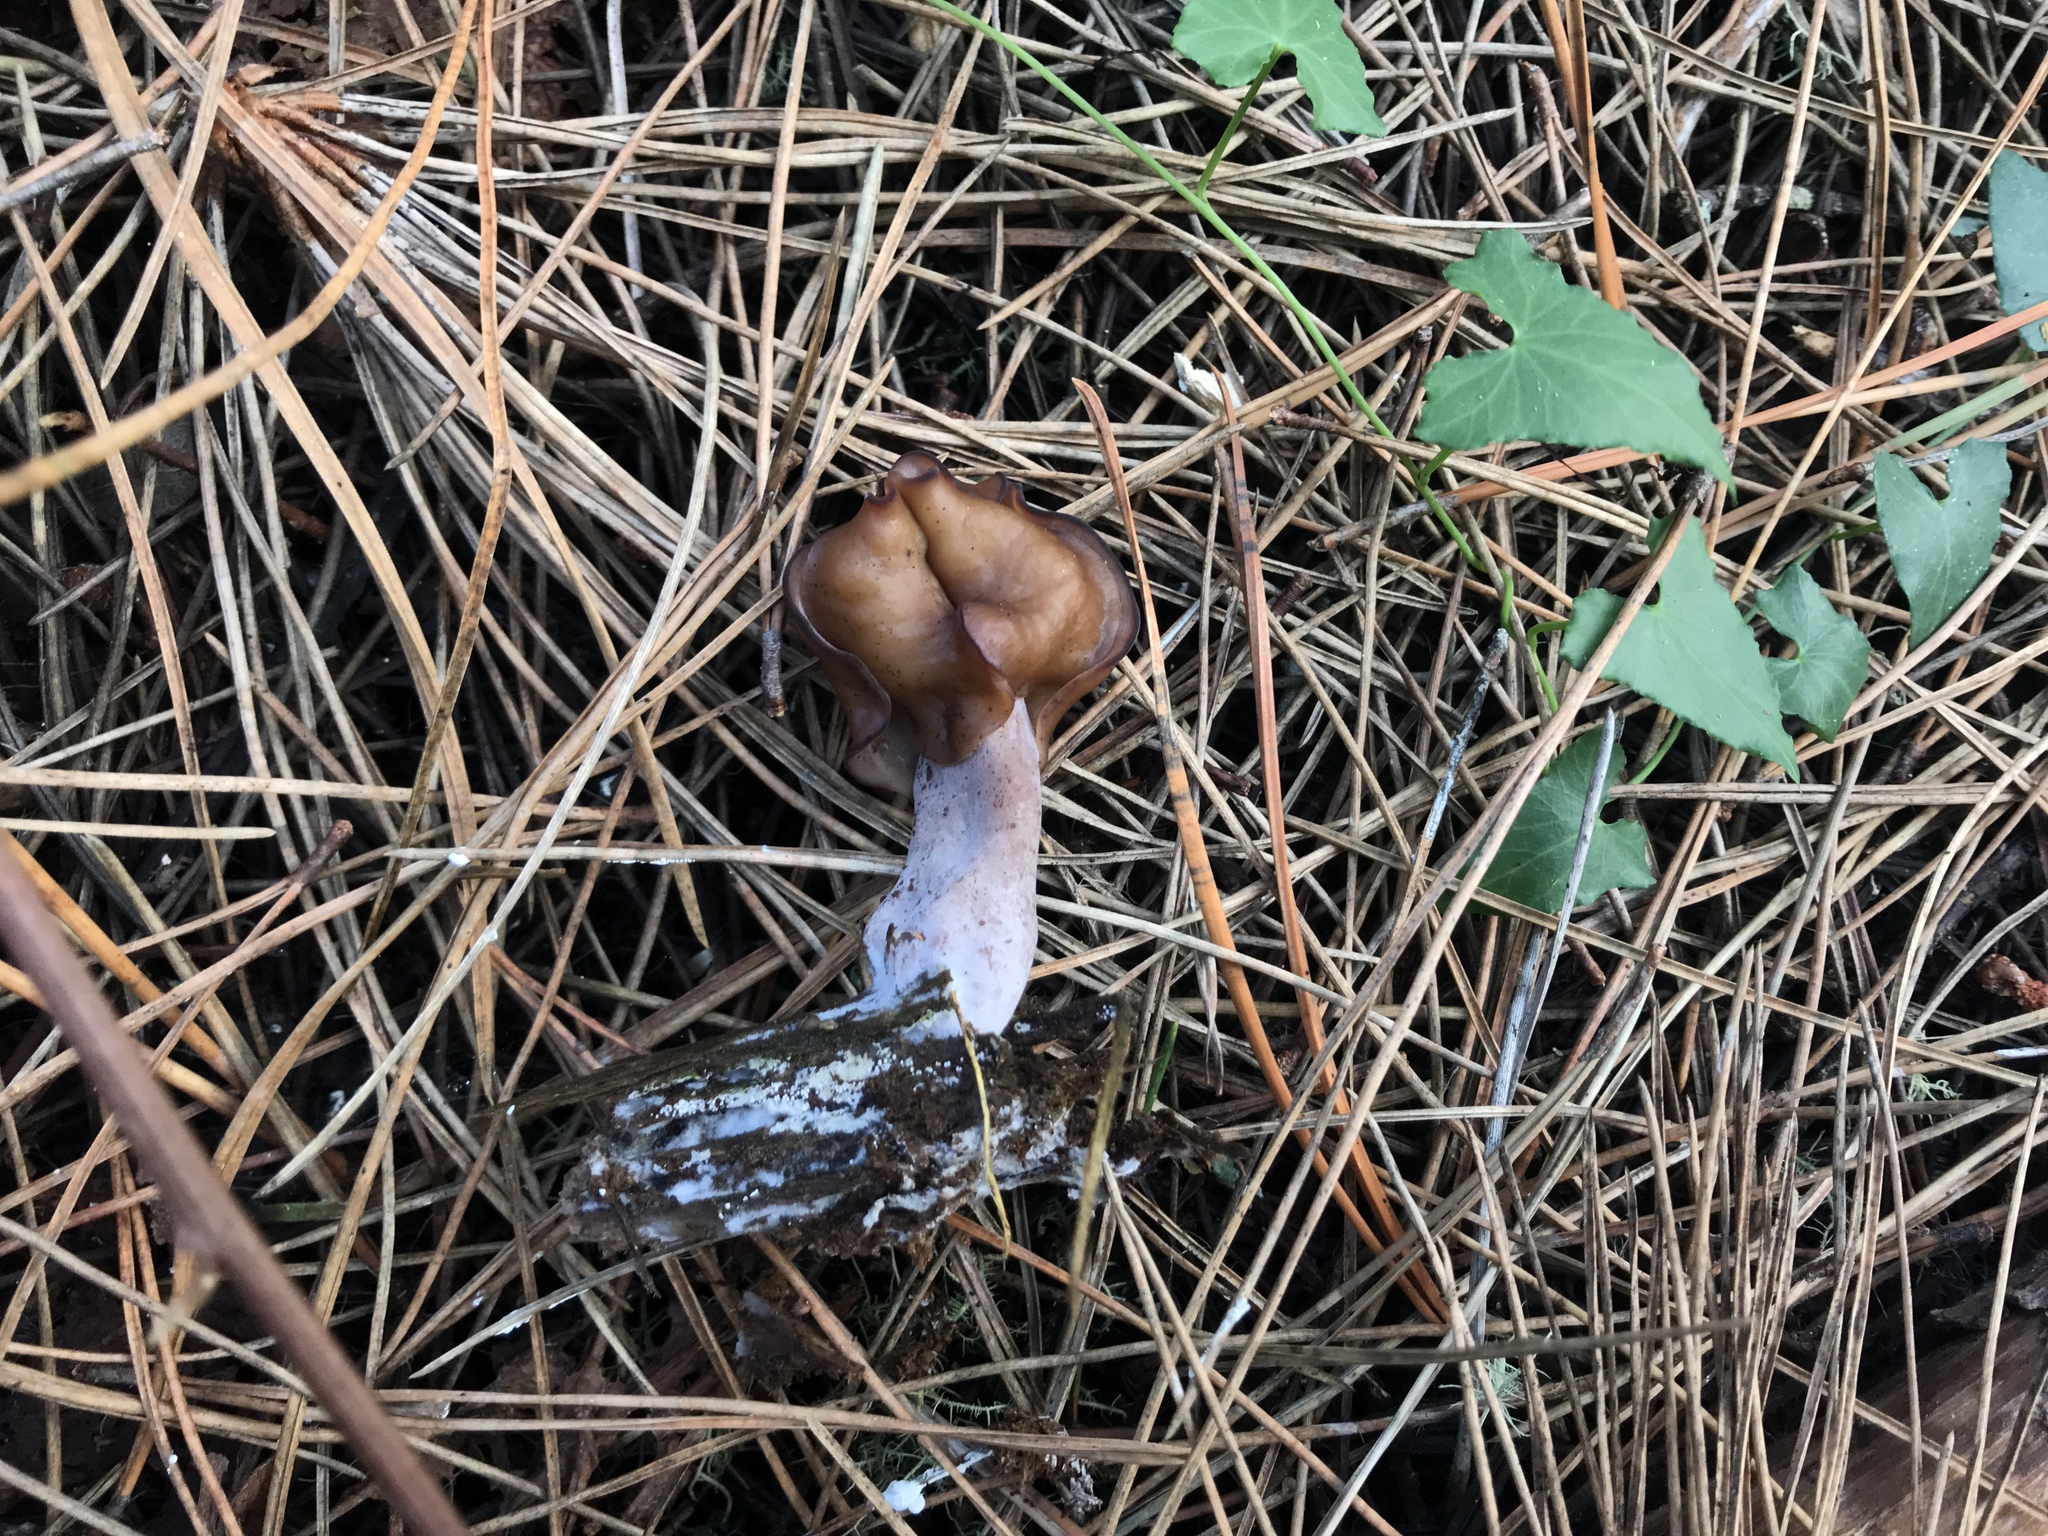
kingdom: Fungi
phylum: Ascomycota
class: Pezizomycetes
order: Pezizales
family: Discinaceae
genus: Gyromitra
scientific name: Gyromitra infula
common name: Pouched false morel
